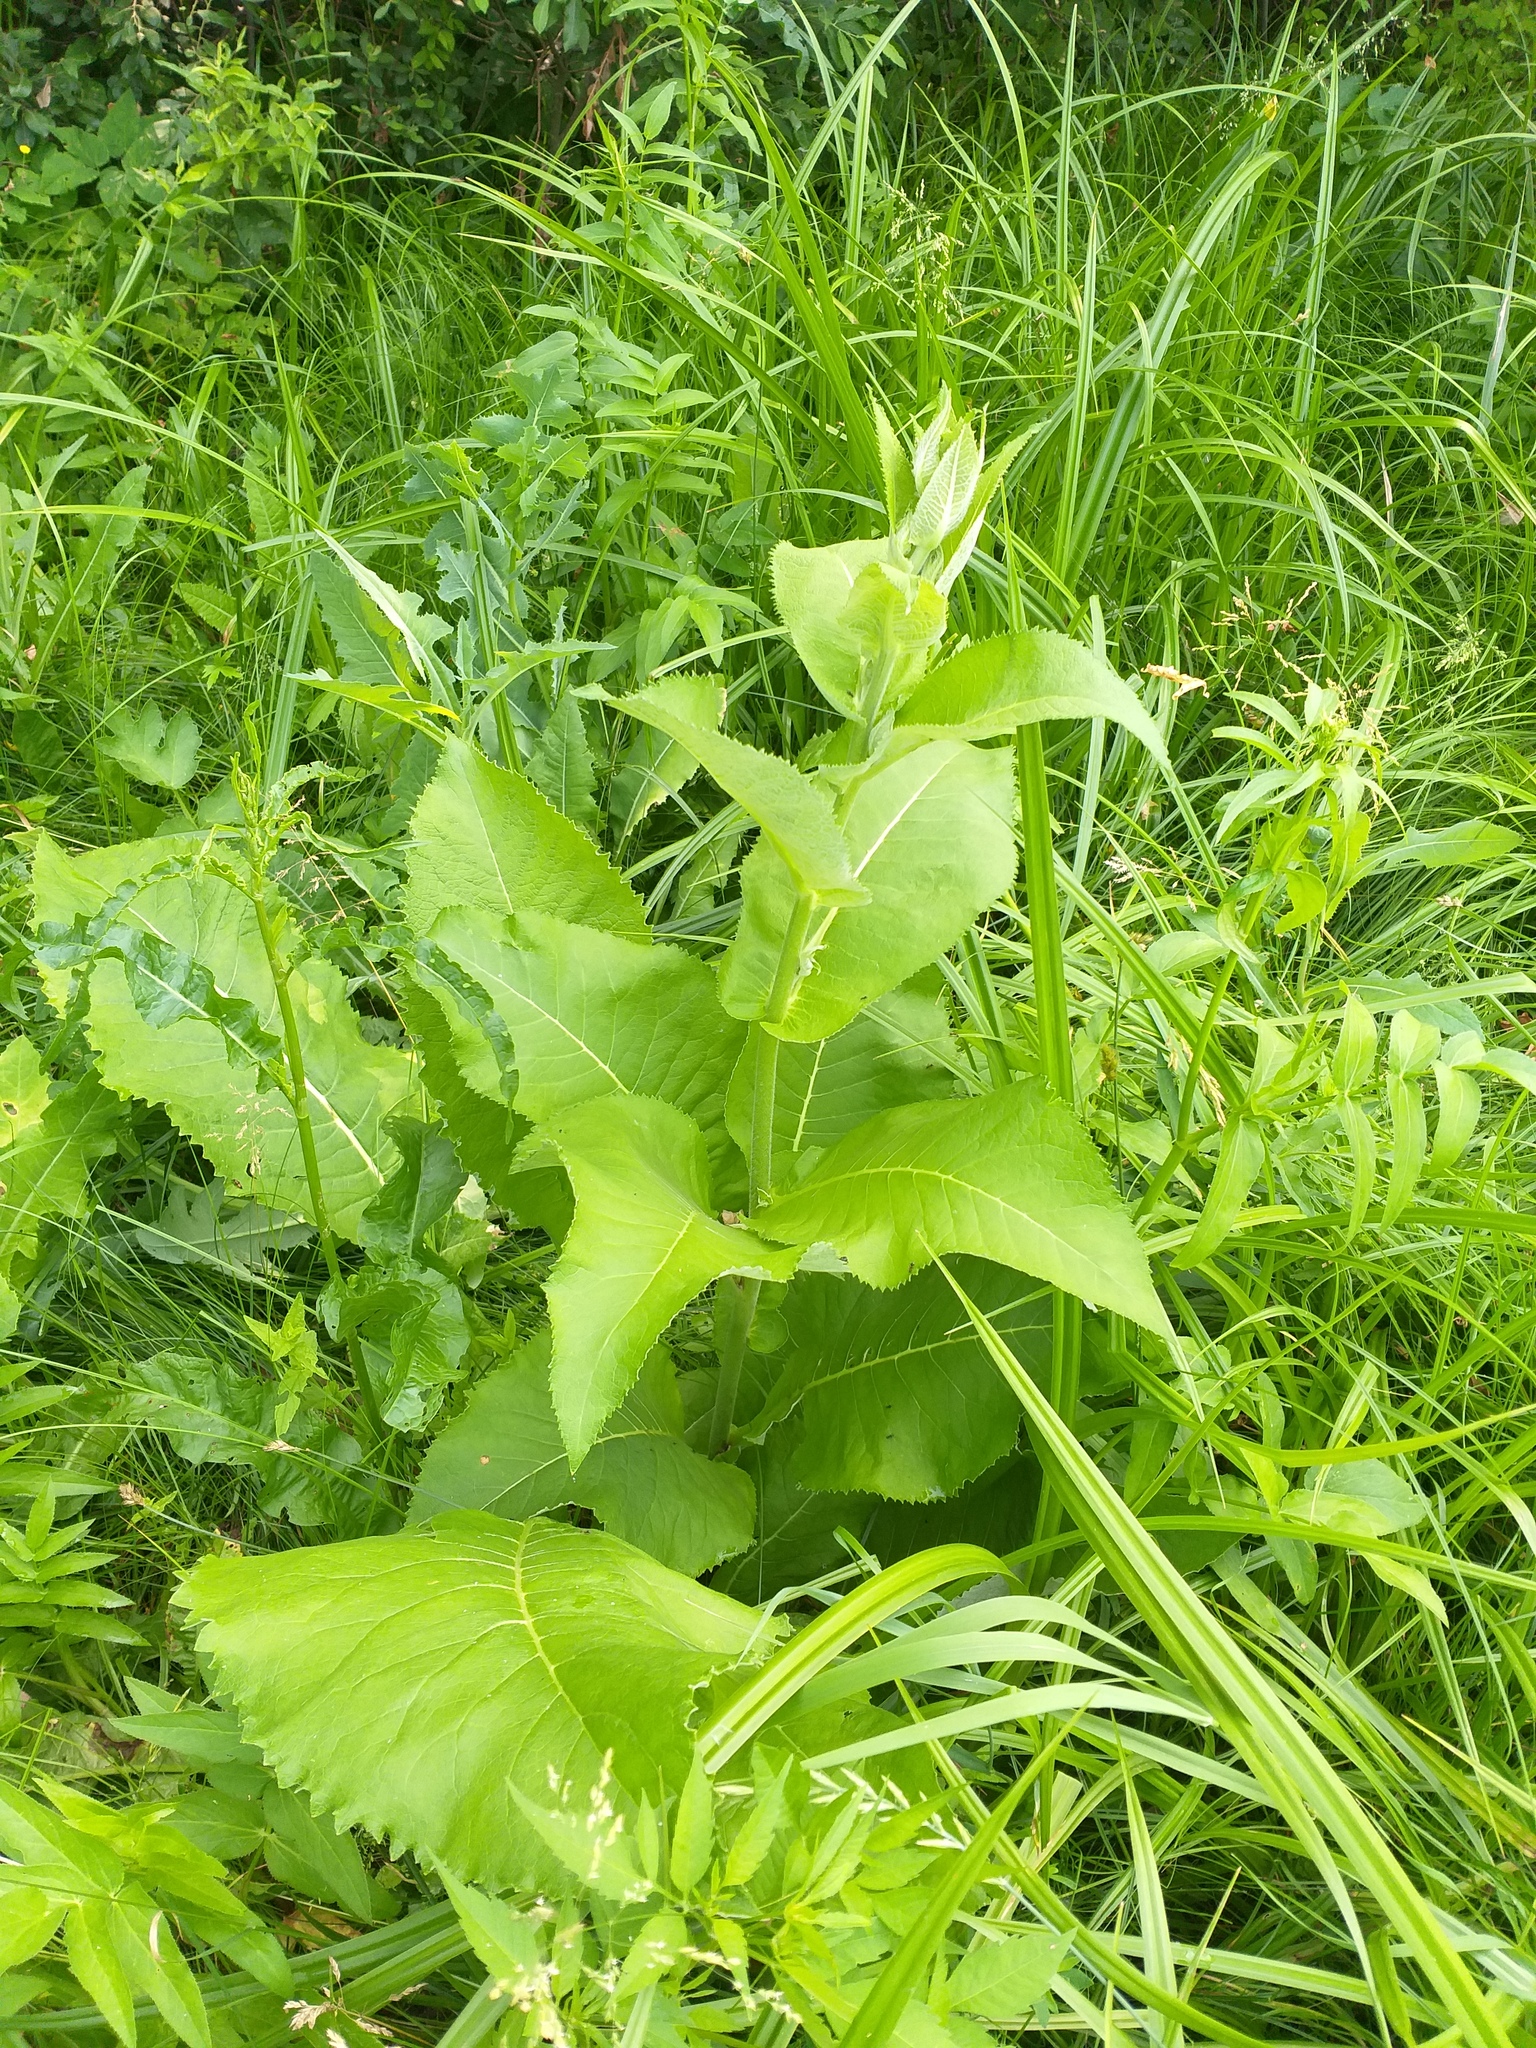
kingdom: Plantae
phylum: Tracheophyta
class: Magnoliopsida
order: Asterales
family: Asteraceae
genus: Inula
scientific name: Inula helenium
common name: Elecampane
